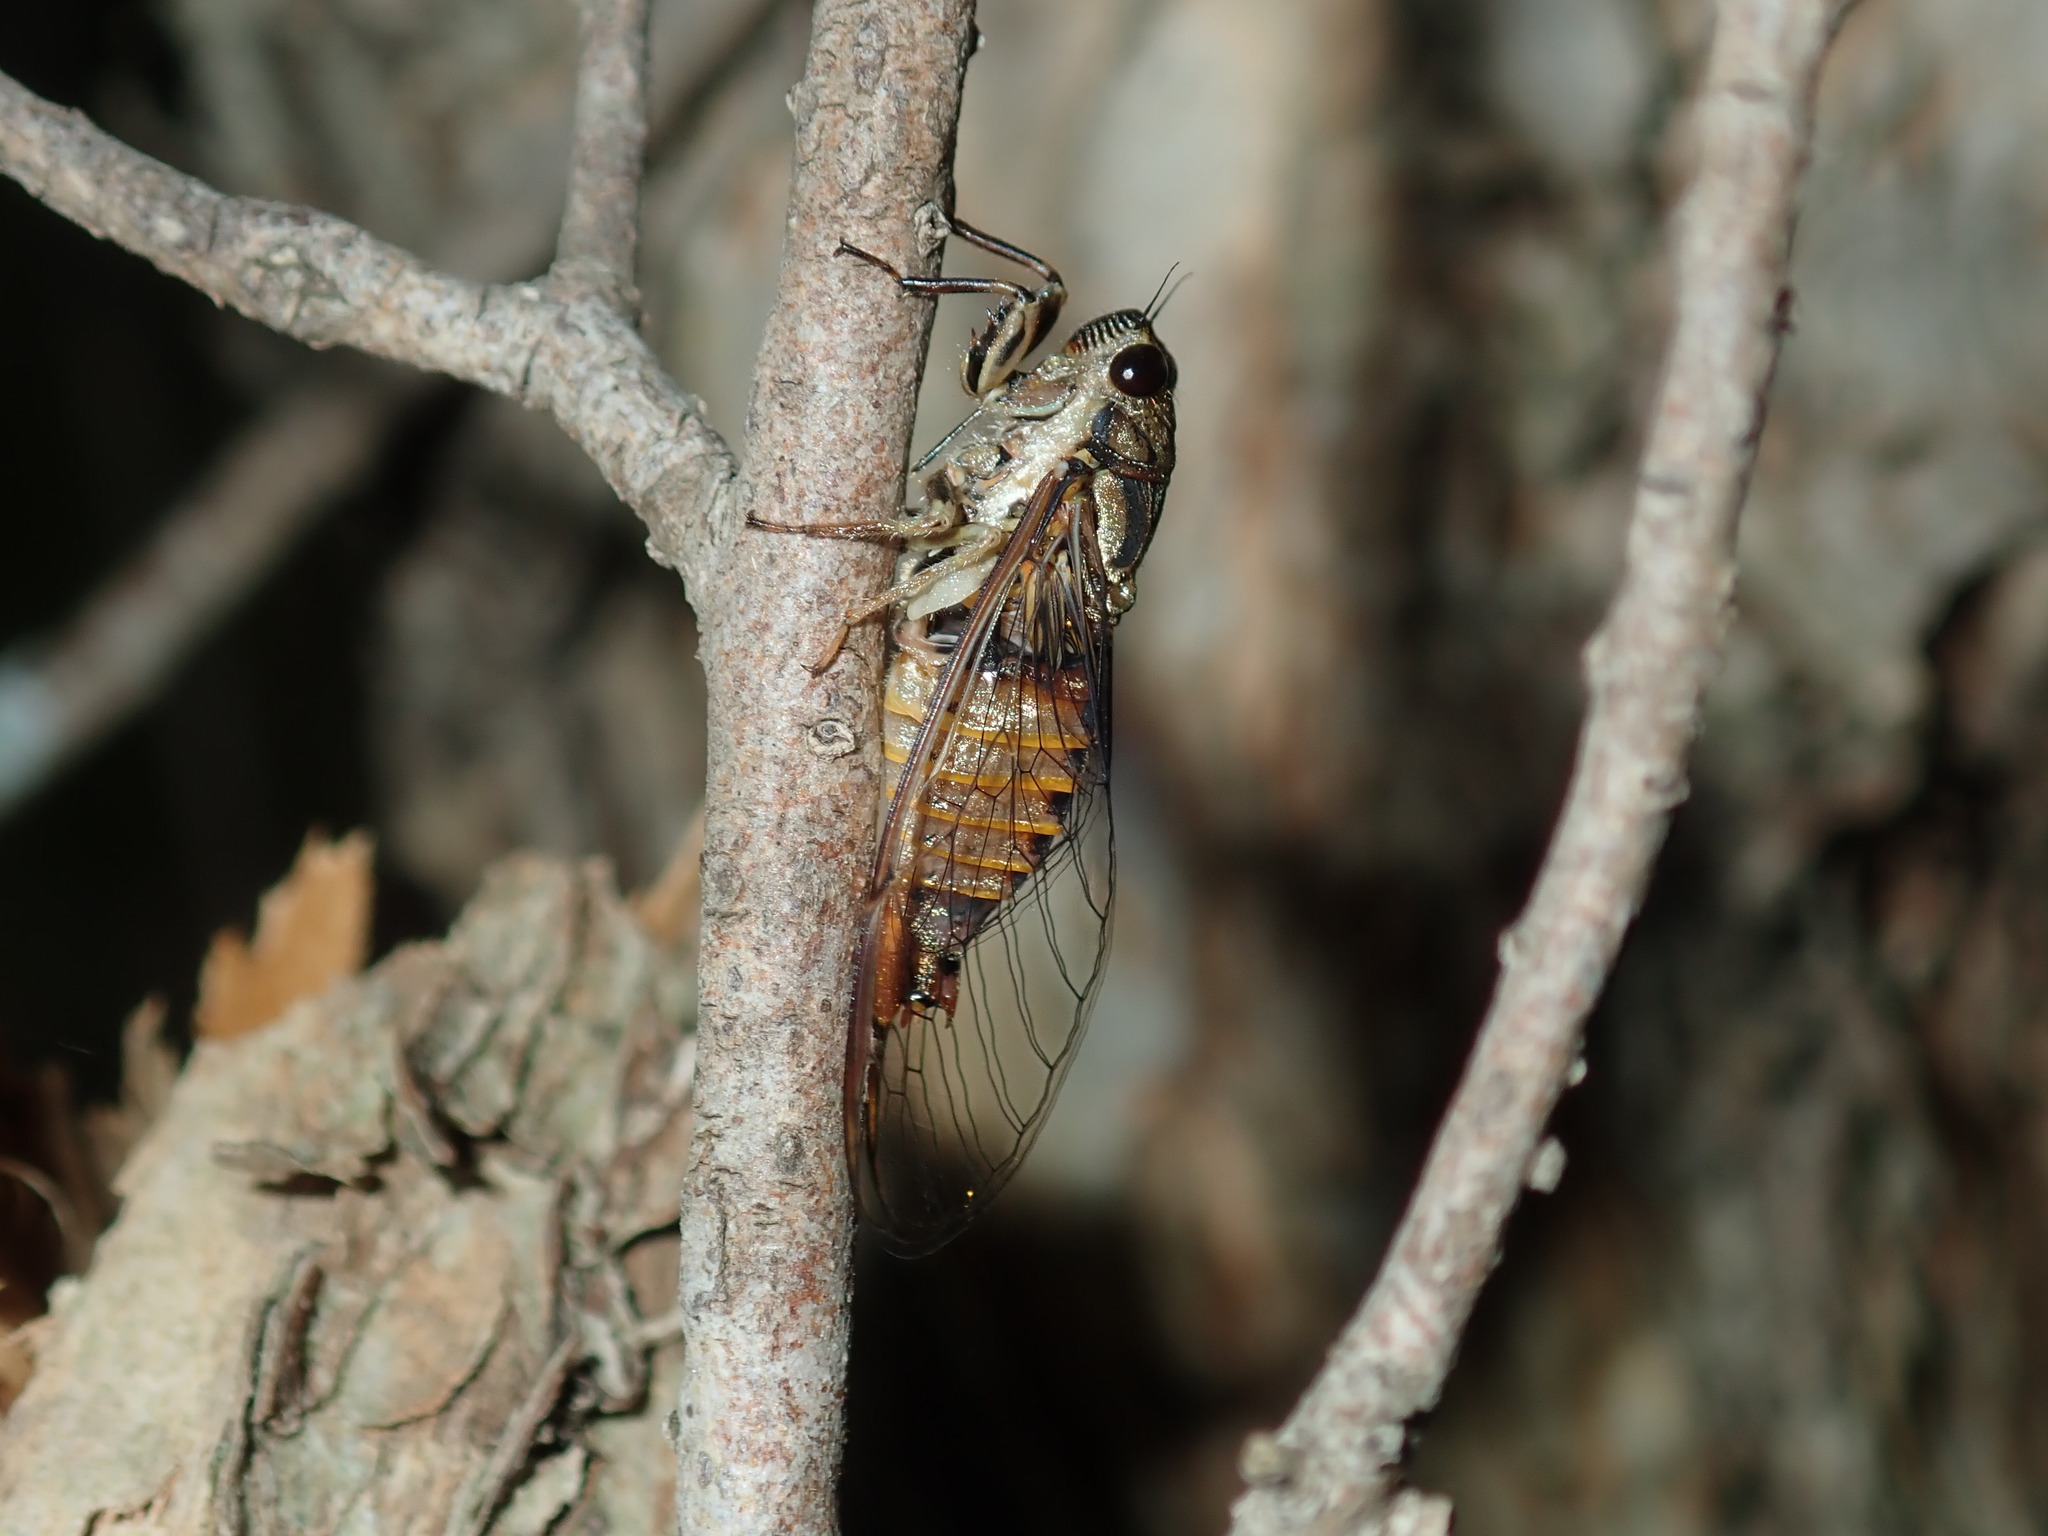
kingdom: Animalia
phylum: Arthropoda
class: Insecta
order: Hemiptera
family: Cicadidae
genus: Yoyetta
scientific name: Yoyetta celis
